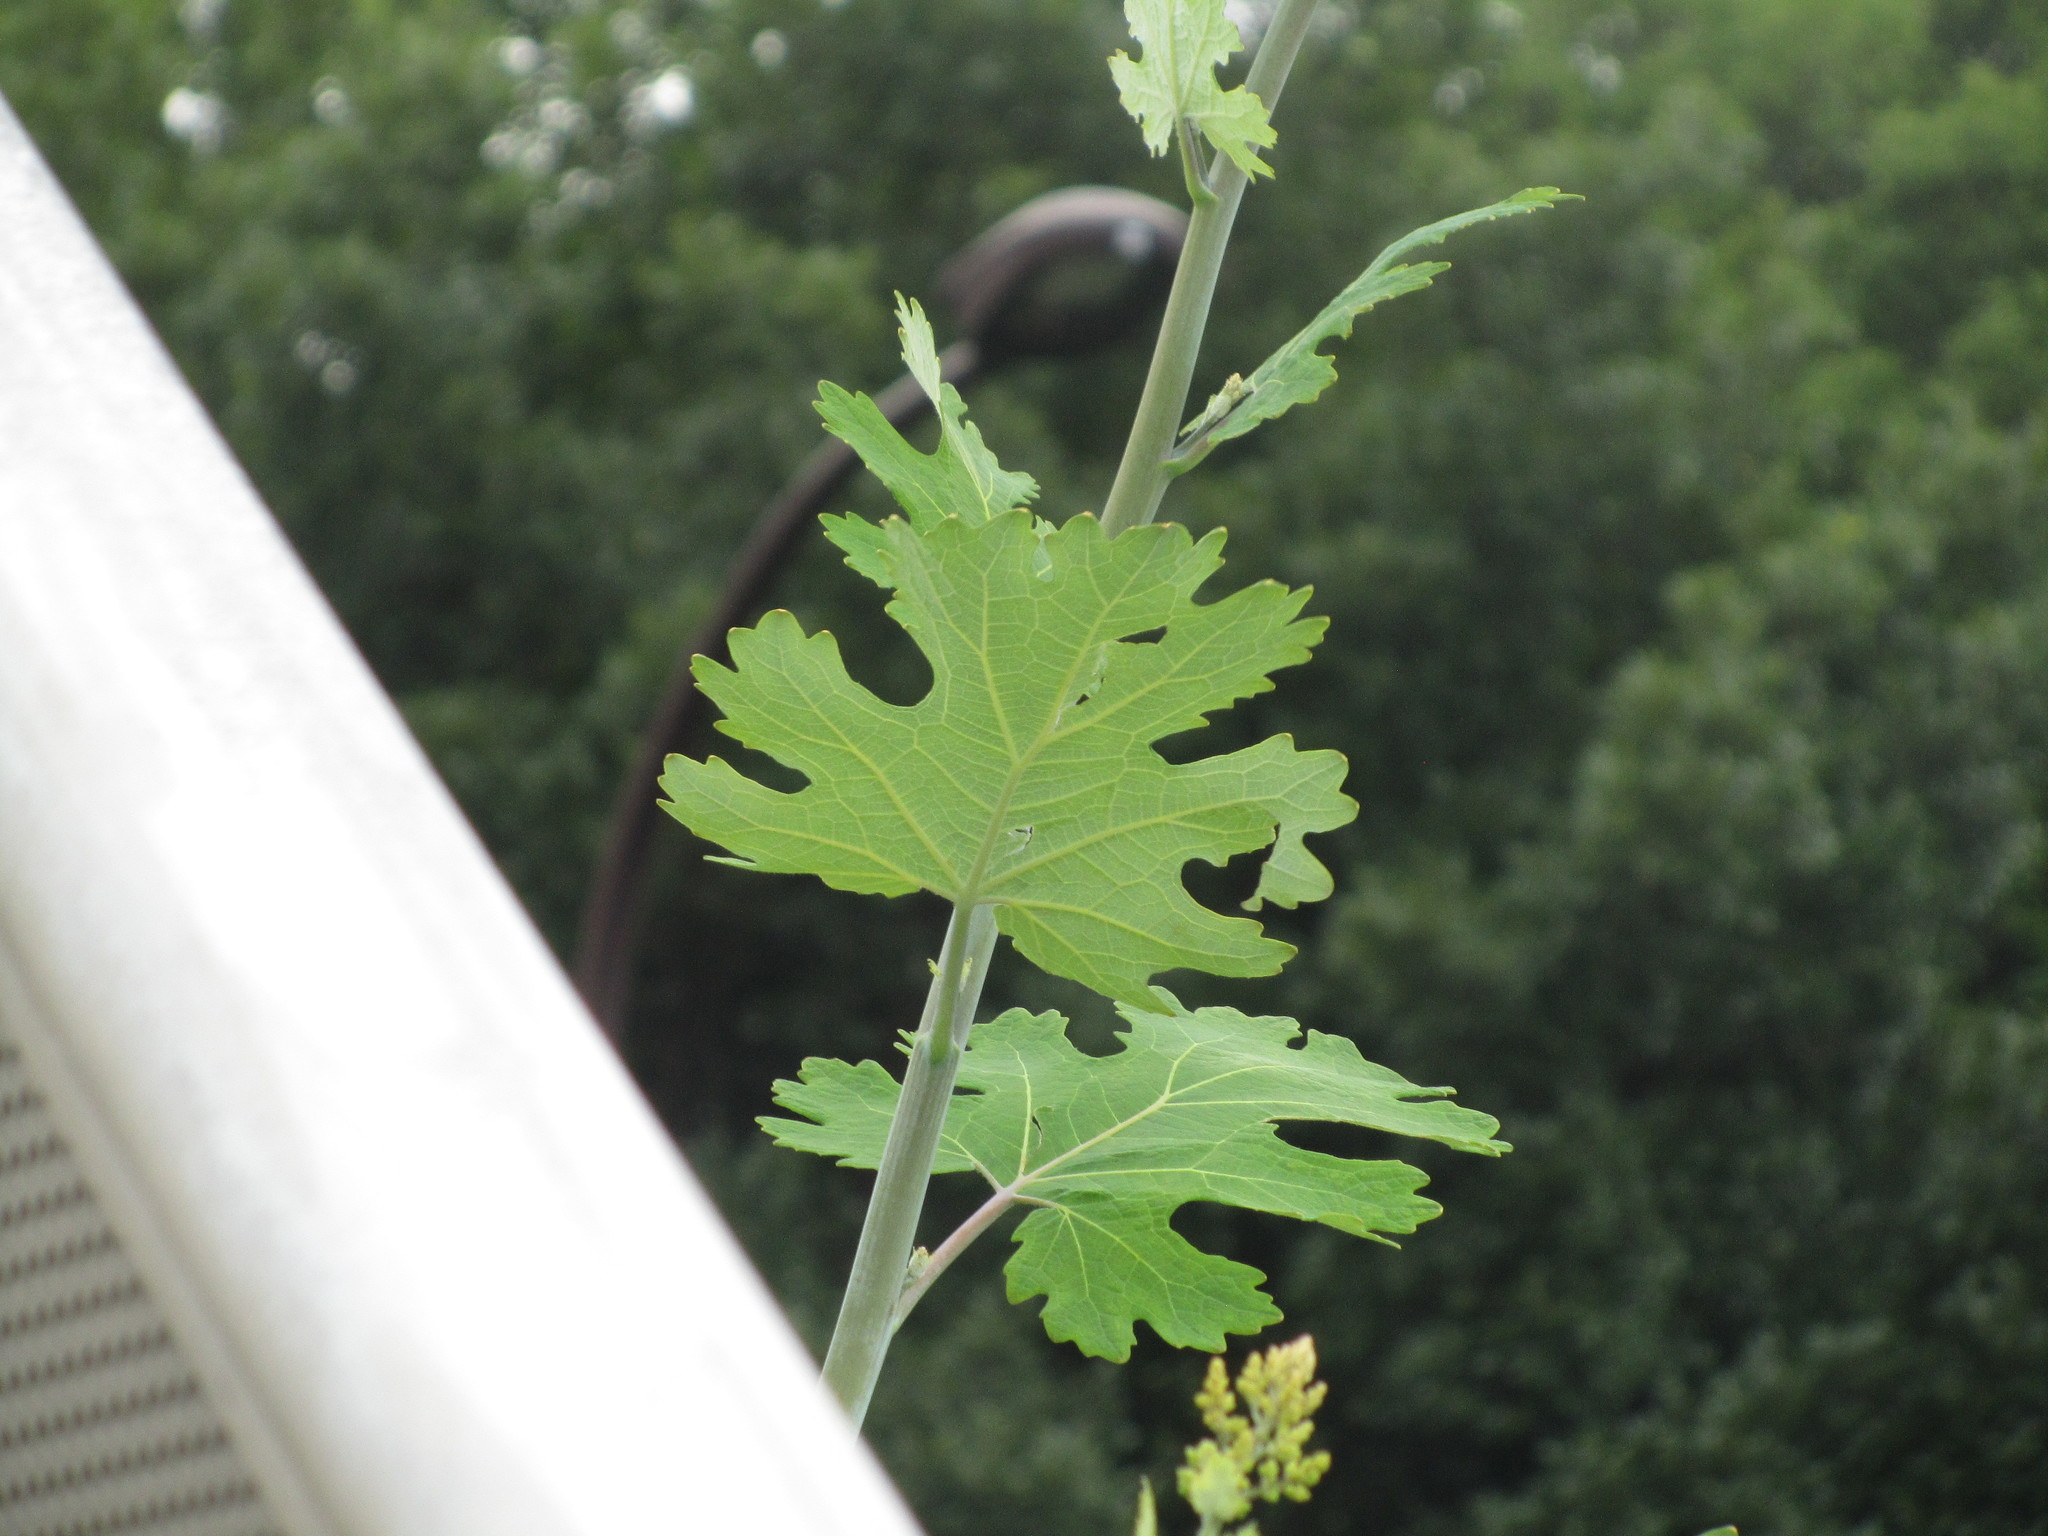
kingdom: Plantae
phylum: Tracheophyta
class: Magnoliopsida
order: Ranunculales
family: Papaveraceae
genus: Macleaya
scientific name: Macleaya cordata
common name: Plume poppy
